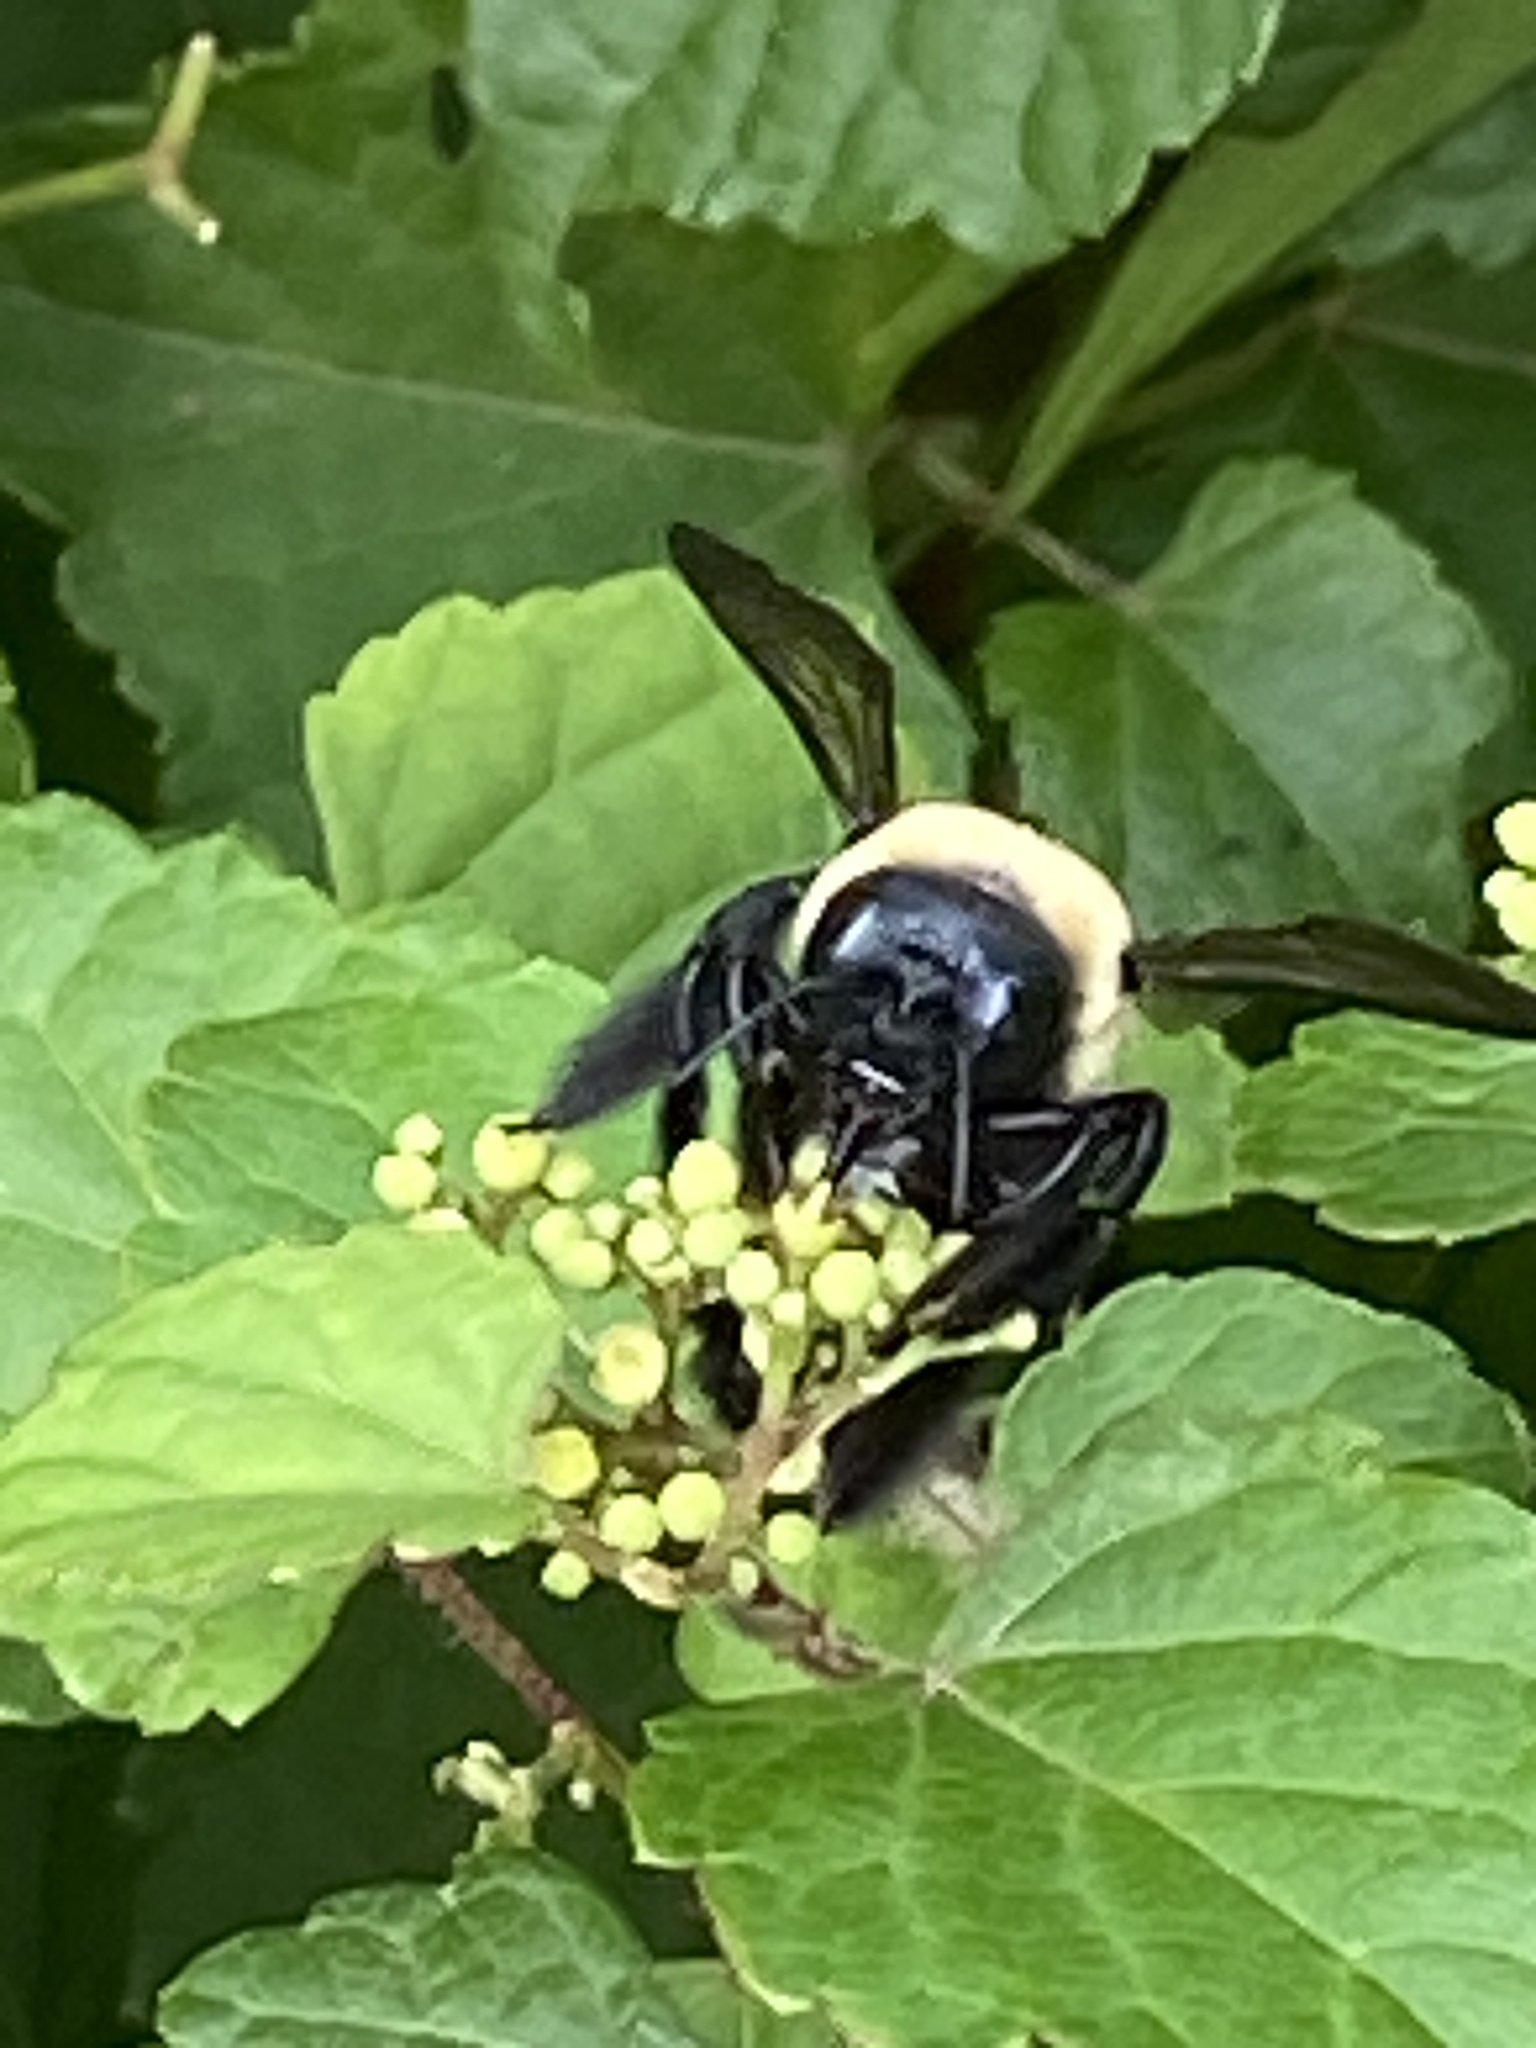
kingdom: Animalia
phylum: Arthropoda
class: Insecta
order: Hymenoptera
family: Apidae
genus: Xylocopa
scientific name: Xylocopa virginica
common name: Carpenter bee
